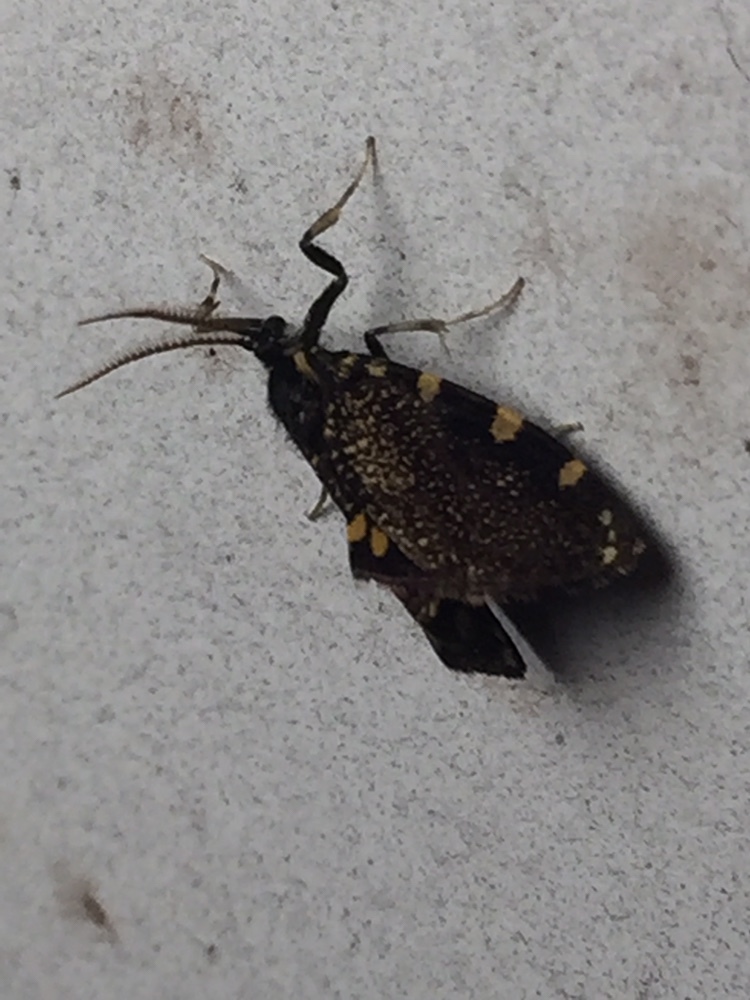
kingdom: Animalia
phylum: Arthropoda
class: Insecta
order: Lepidoptera
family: Psychidae
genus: Cebysa
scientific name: Cebysa leucotelus
